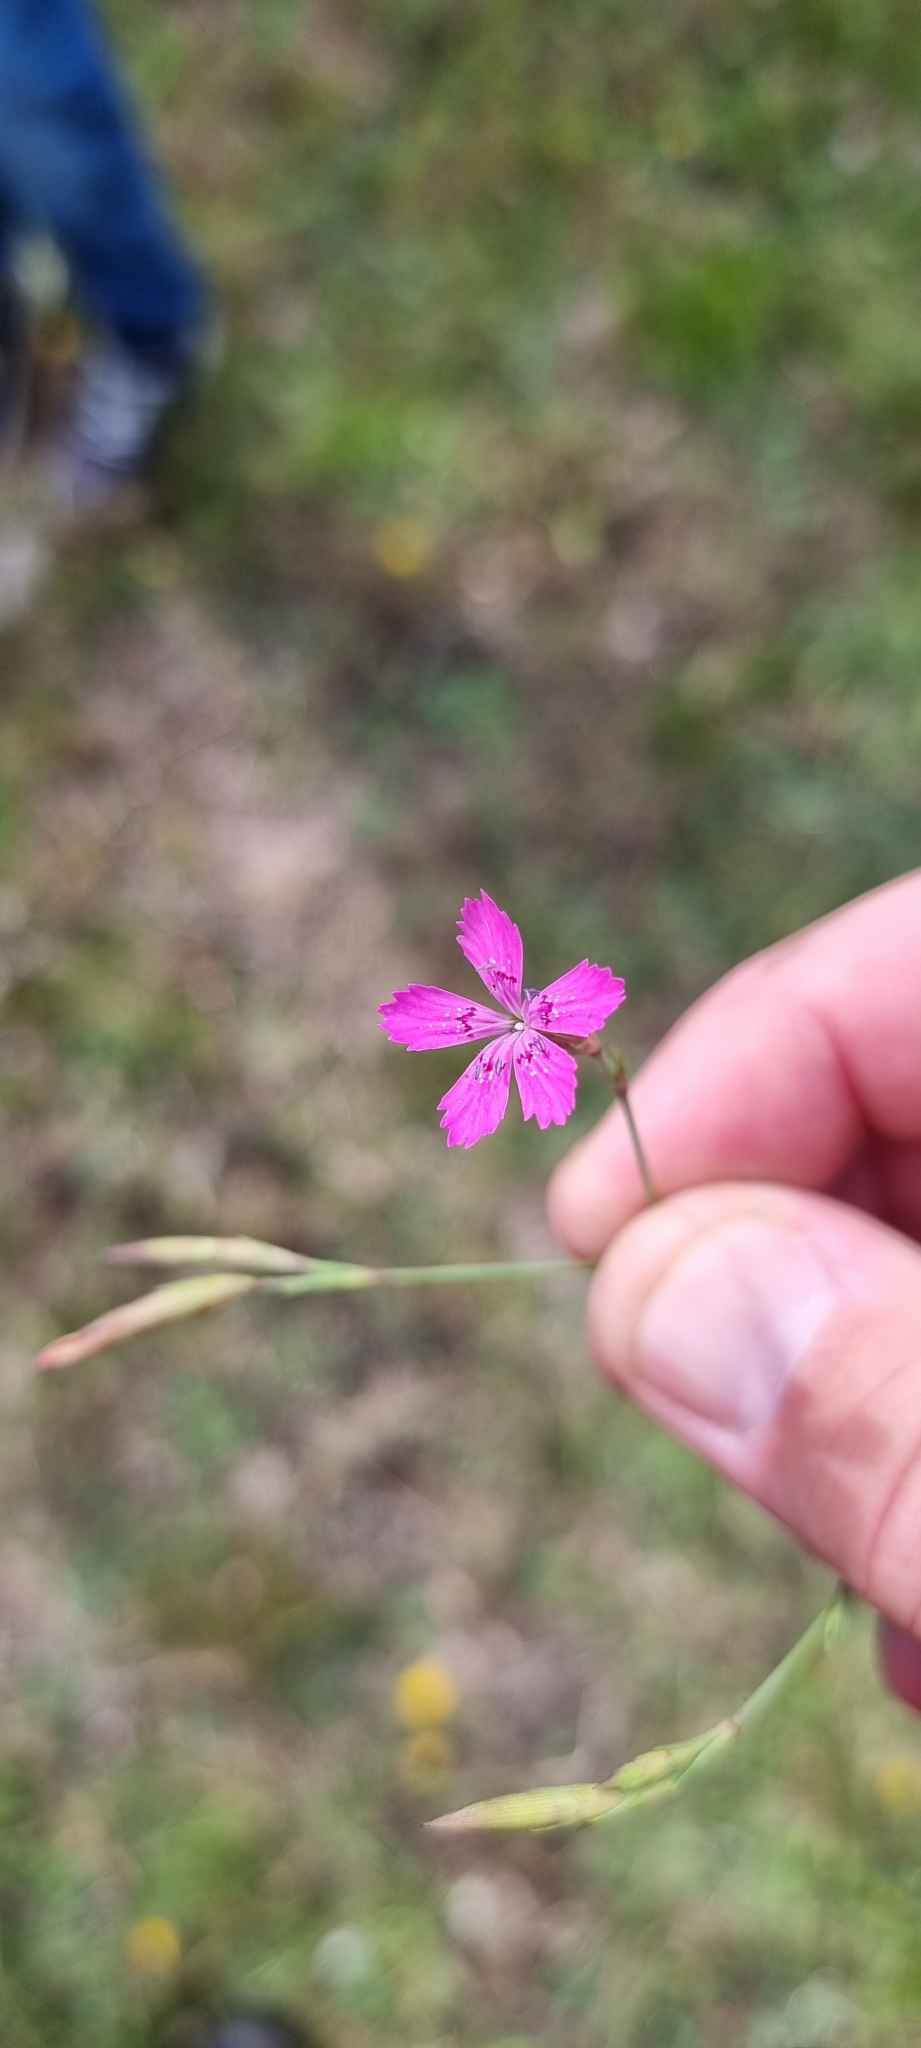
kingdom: Plantae
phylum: Tracheophyta
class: Magnoliopsida
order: Caryophyllales
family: Caryophyllaceae
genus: Dianthus
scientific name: Dianthus deltoides
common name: Maiden pink
